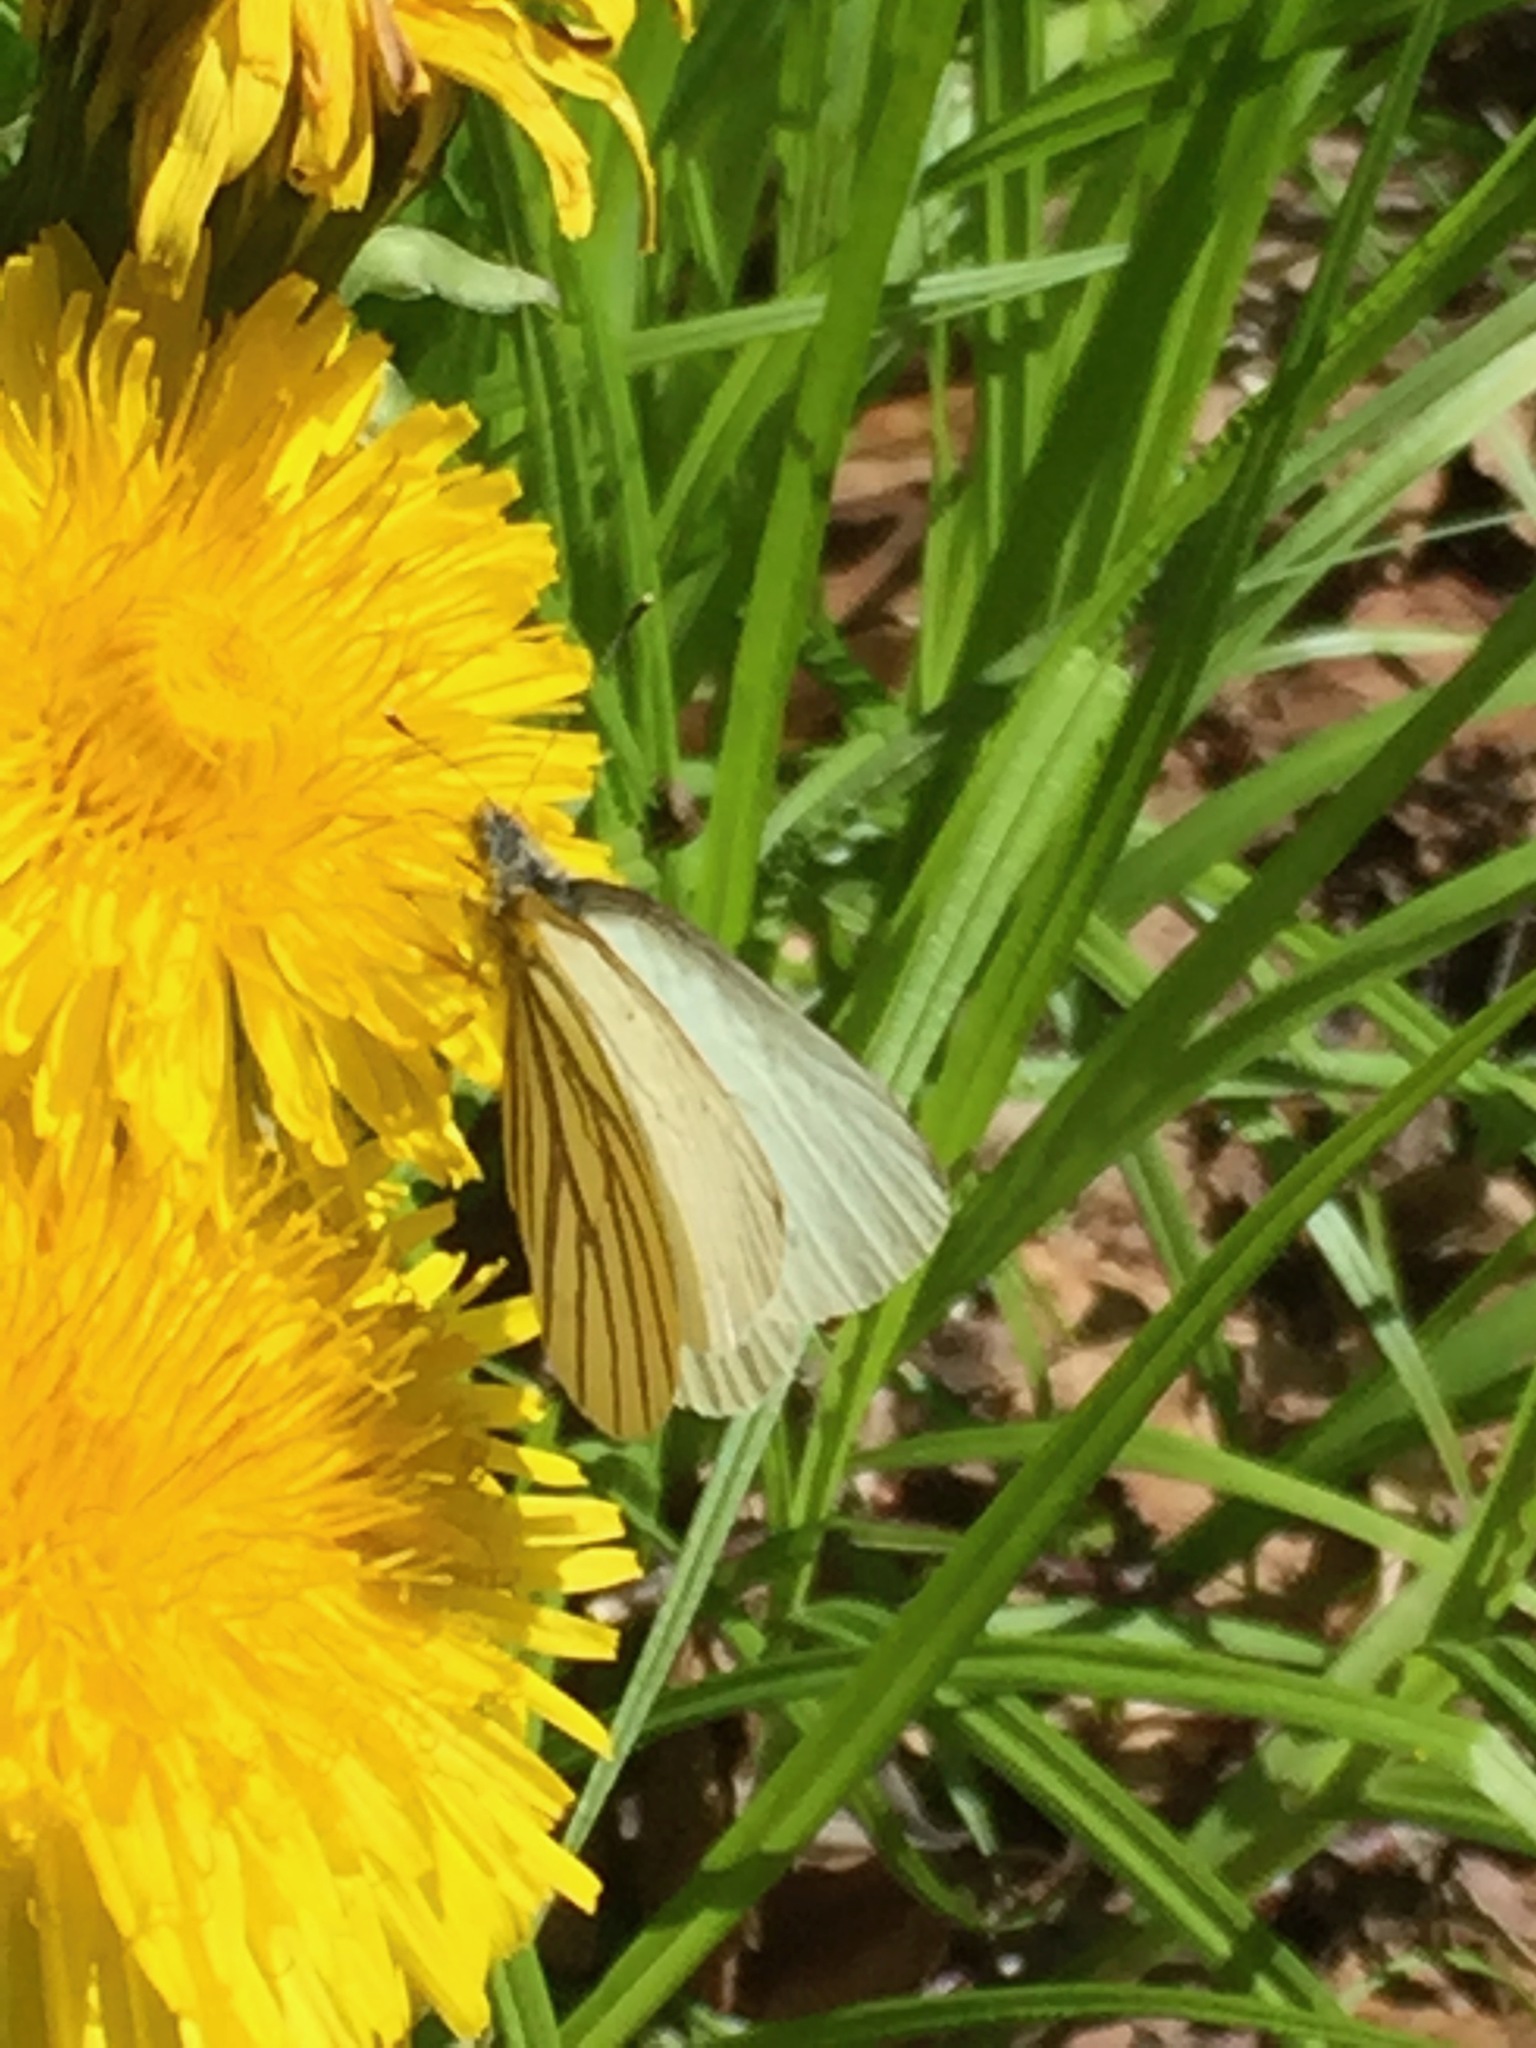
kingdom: Animalia
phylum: Arthropoda
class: Insecta
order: Lepidoptera
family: Pieridae
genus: Pieris
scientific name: Pieris oleracea
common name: Mustard white
